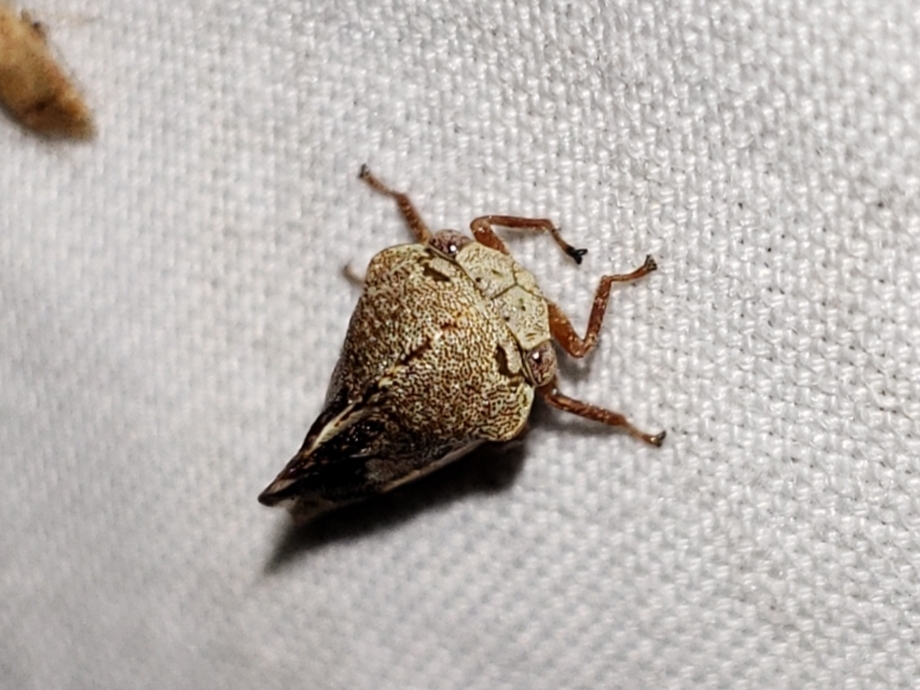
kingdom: Animalia
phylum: Arthropoda
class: Insecta
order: Hemiptera
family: Membracidae
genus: Cyrtolobus
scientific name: Cyrtolobus tuberosa
